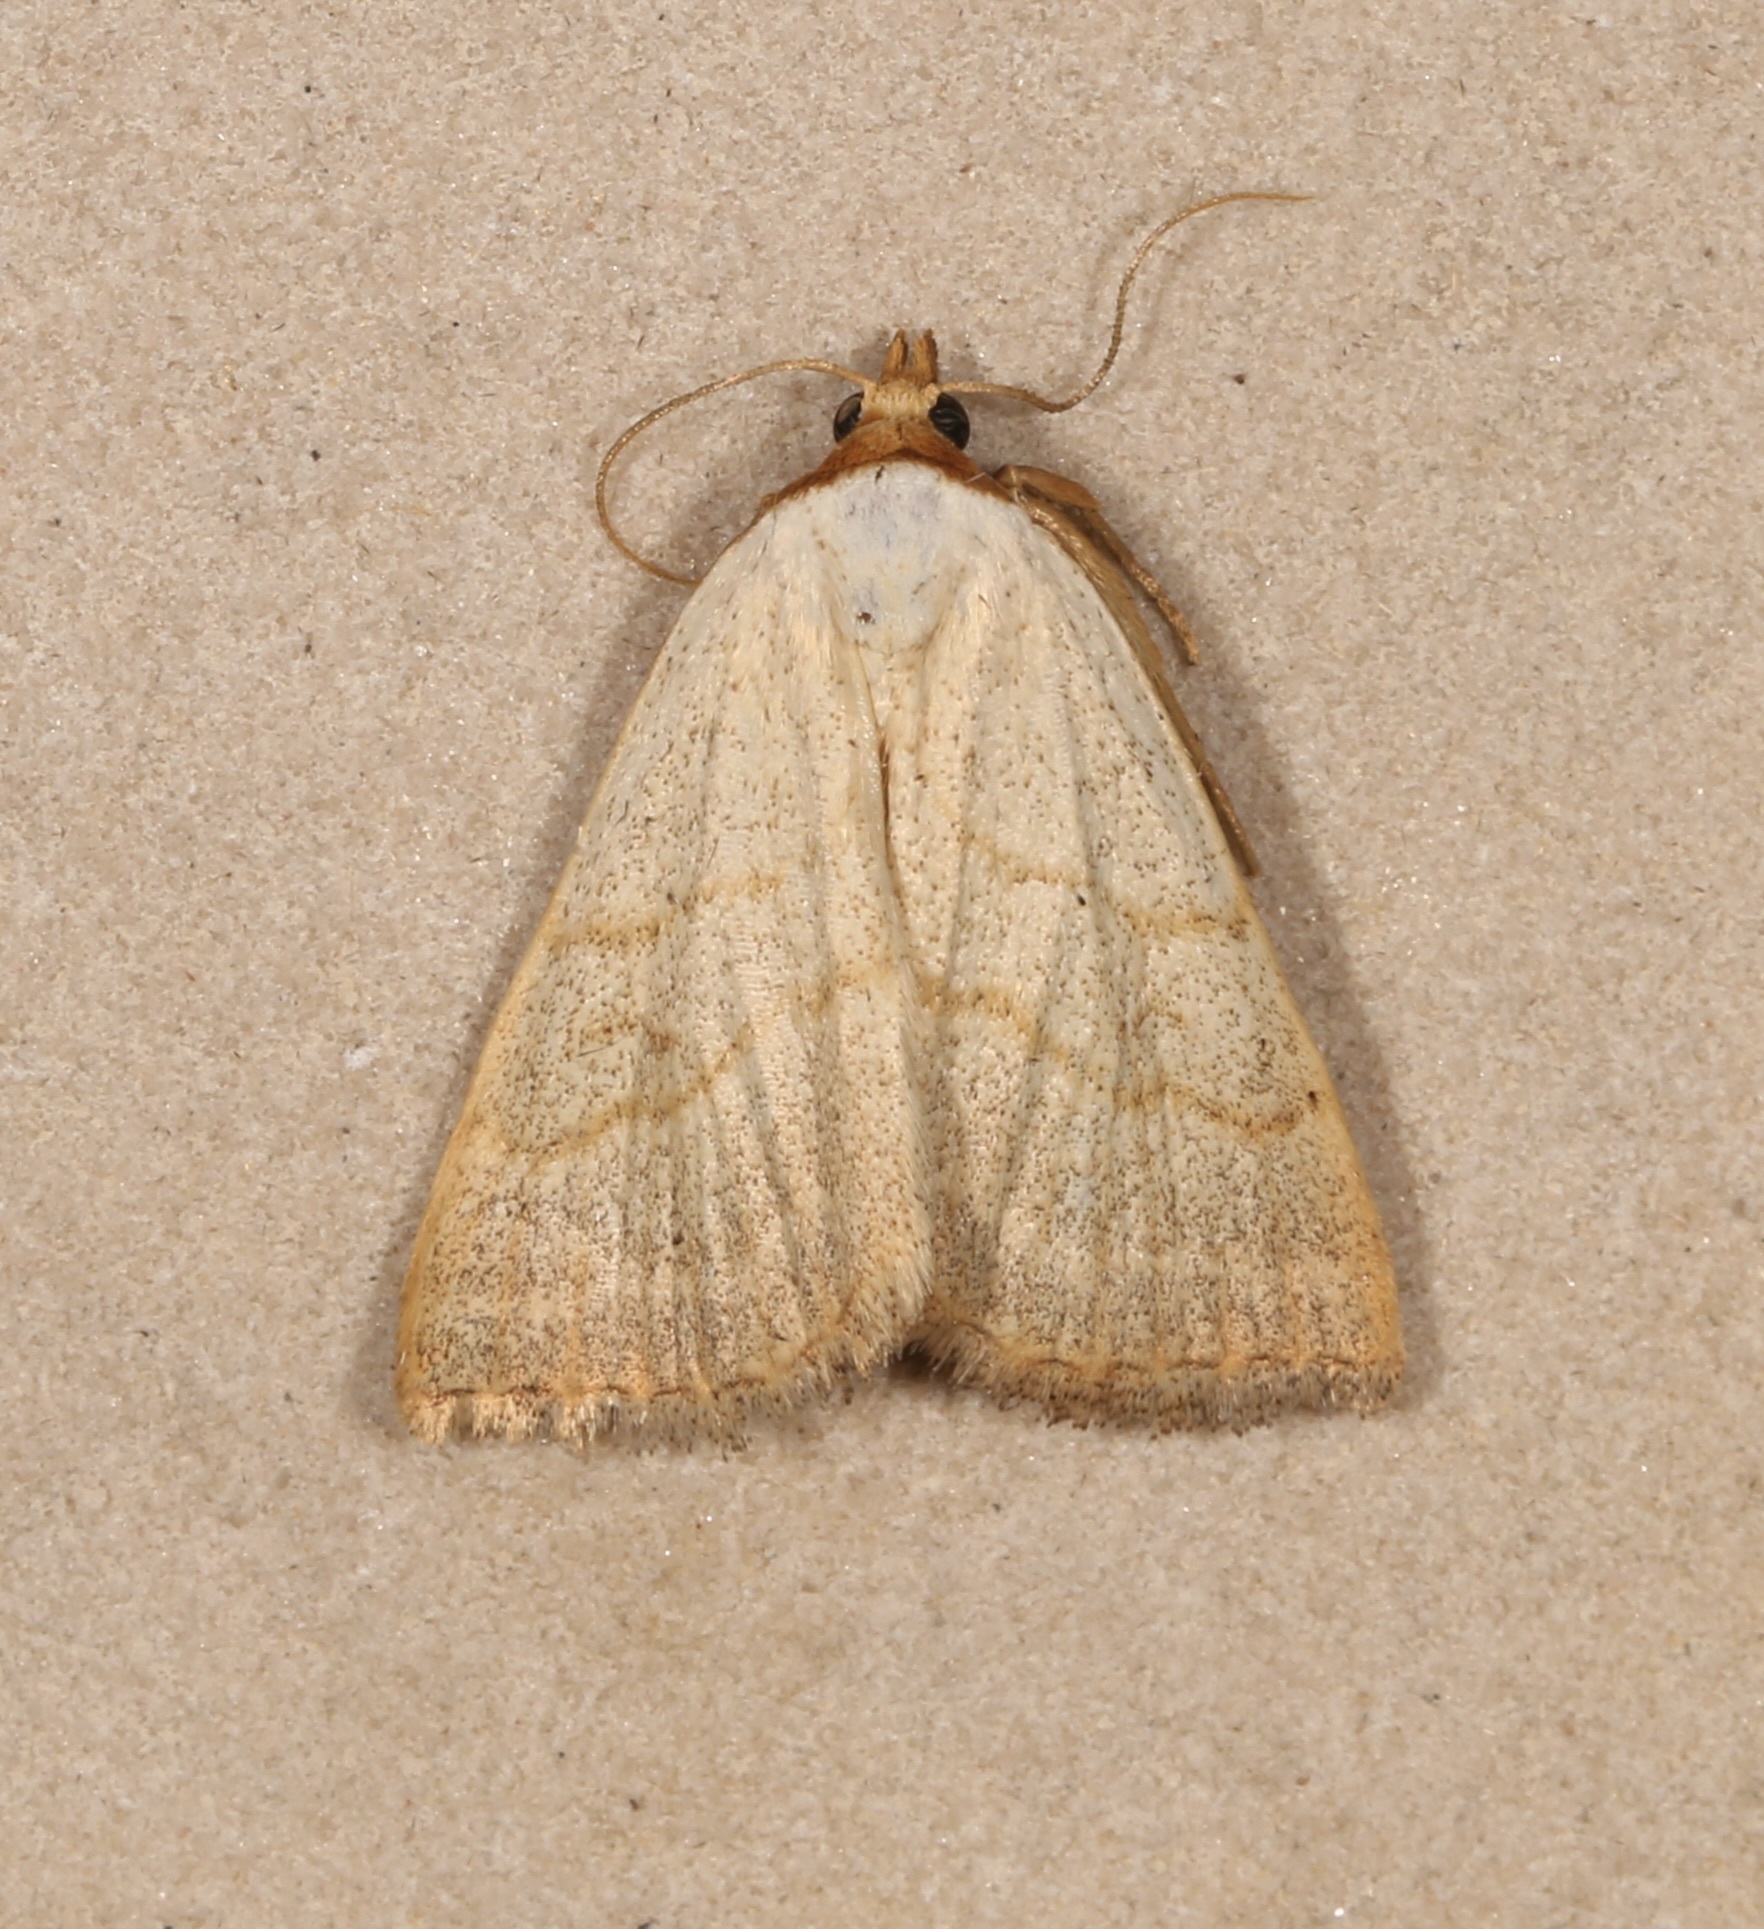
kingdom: Animalia
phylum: Arthropoda
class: Insecta
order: Lepidoptera
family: Erebidae
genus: Oxycilla
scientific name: Oxycilla tripla
